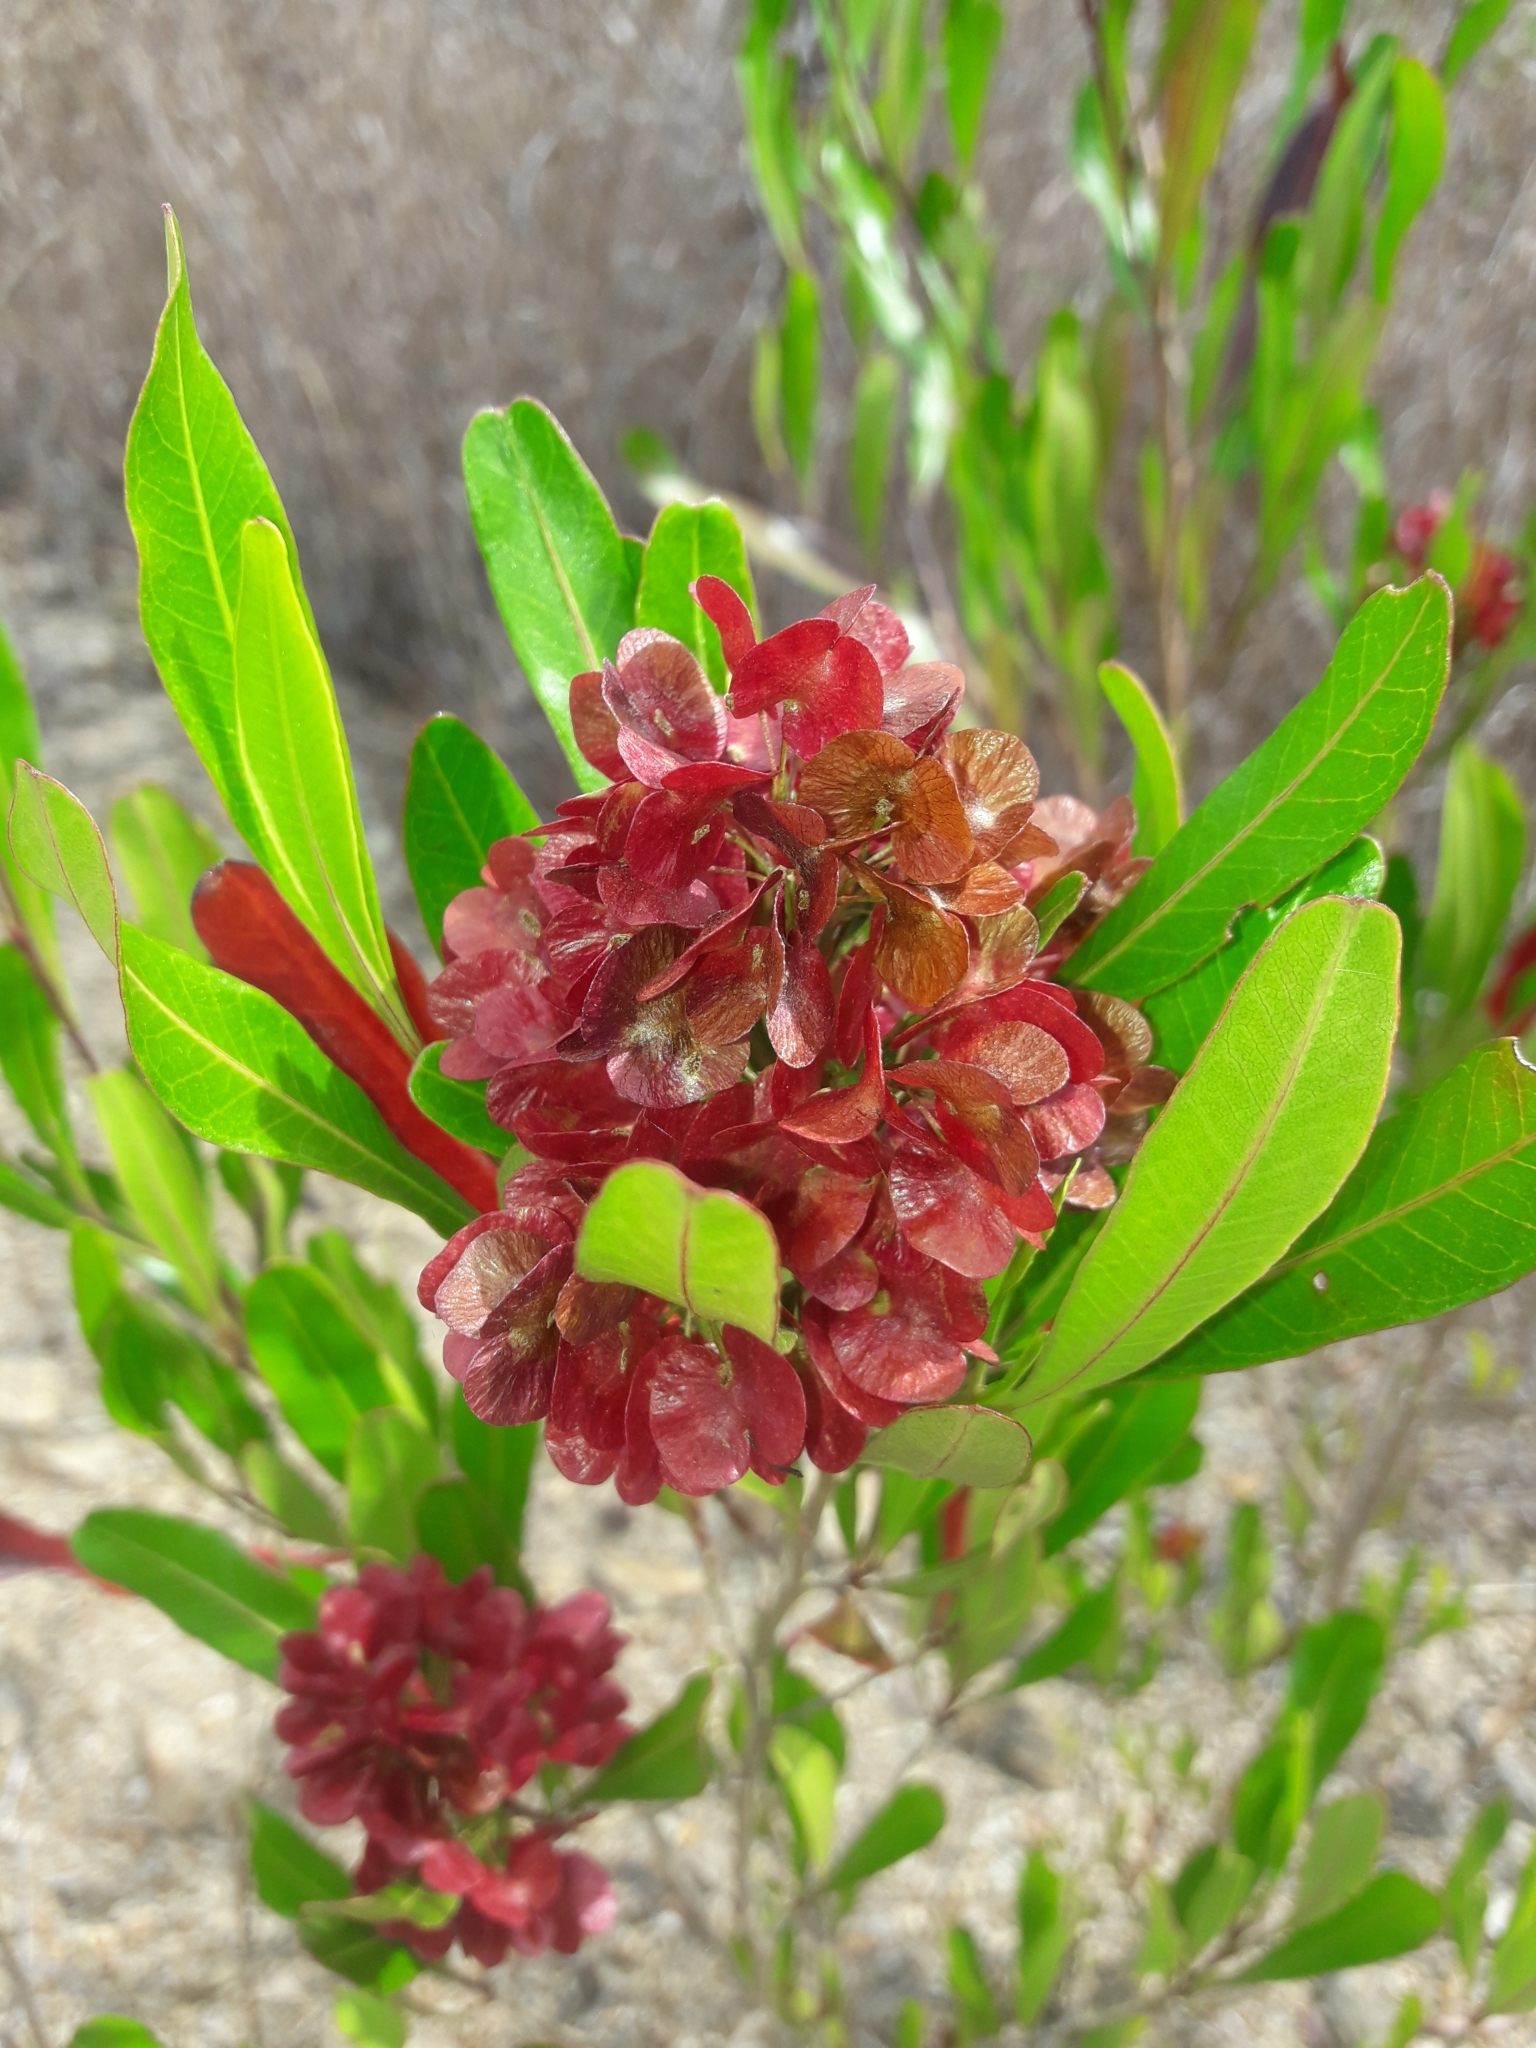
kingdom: Plantae
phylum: Tracheophyta
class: Magnoliopsida
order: Sapindales
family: Sapindaceae
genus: Dodonaea
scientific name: Dodonaea viscosa
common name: Hopbush
